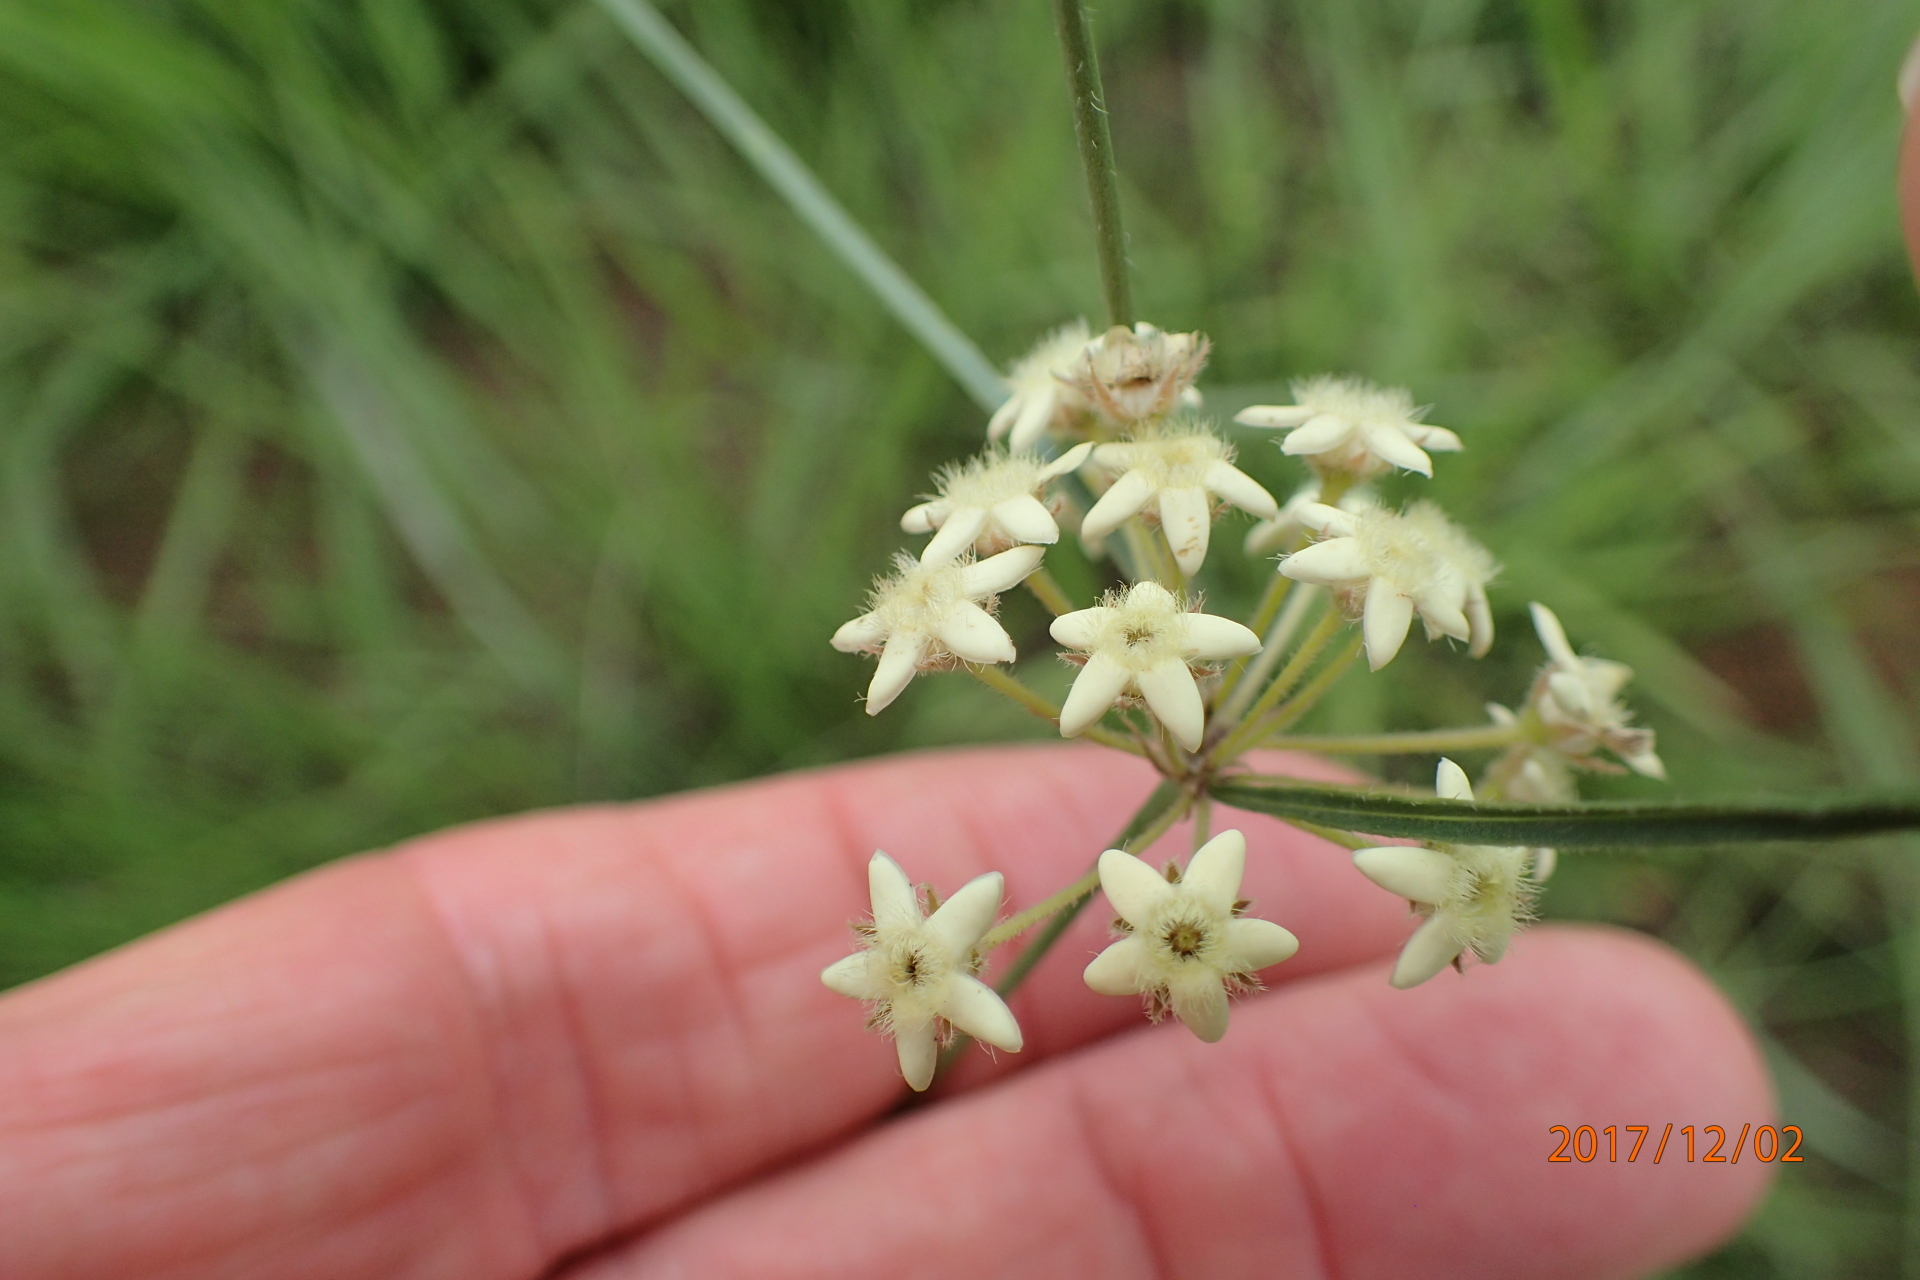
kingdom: Plantae
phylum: Tracheophyta
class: Magnoliopsida
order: Gentianales
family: Apocynaceae
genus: Sisyranthus
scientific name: Sisyranthus trichostomus
